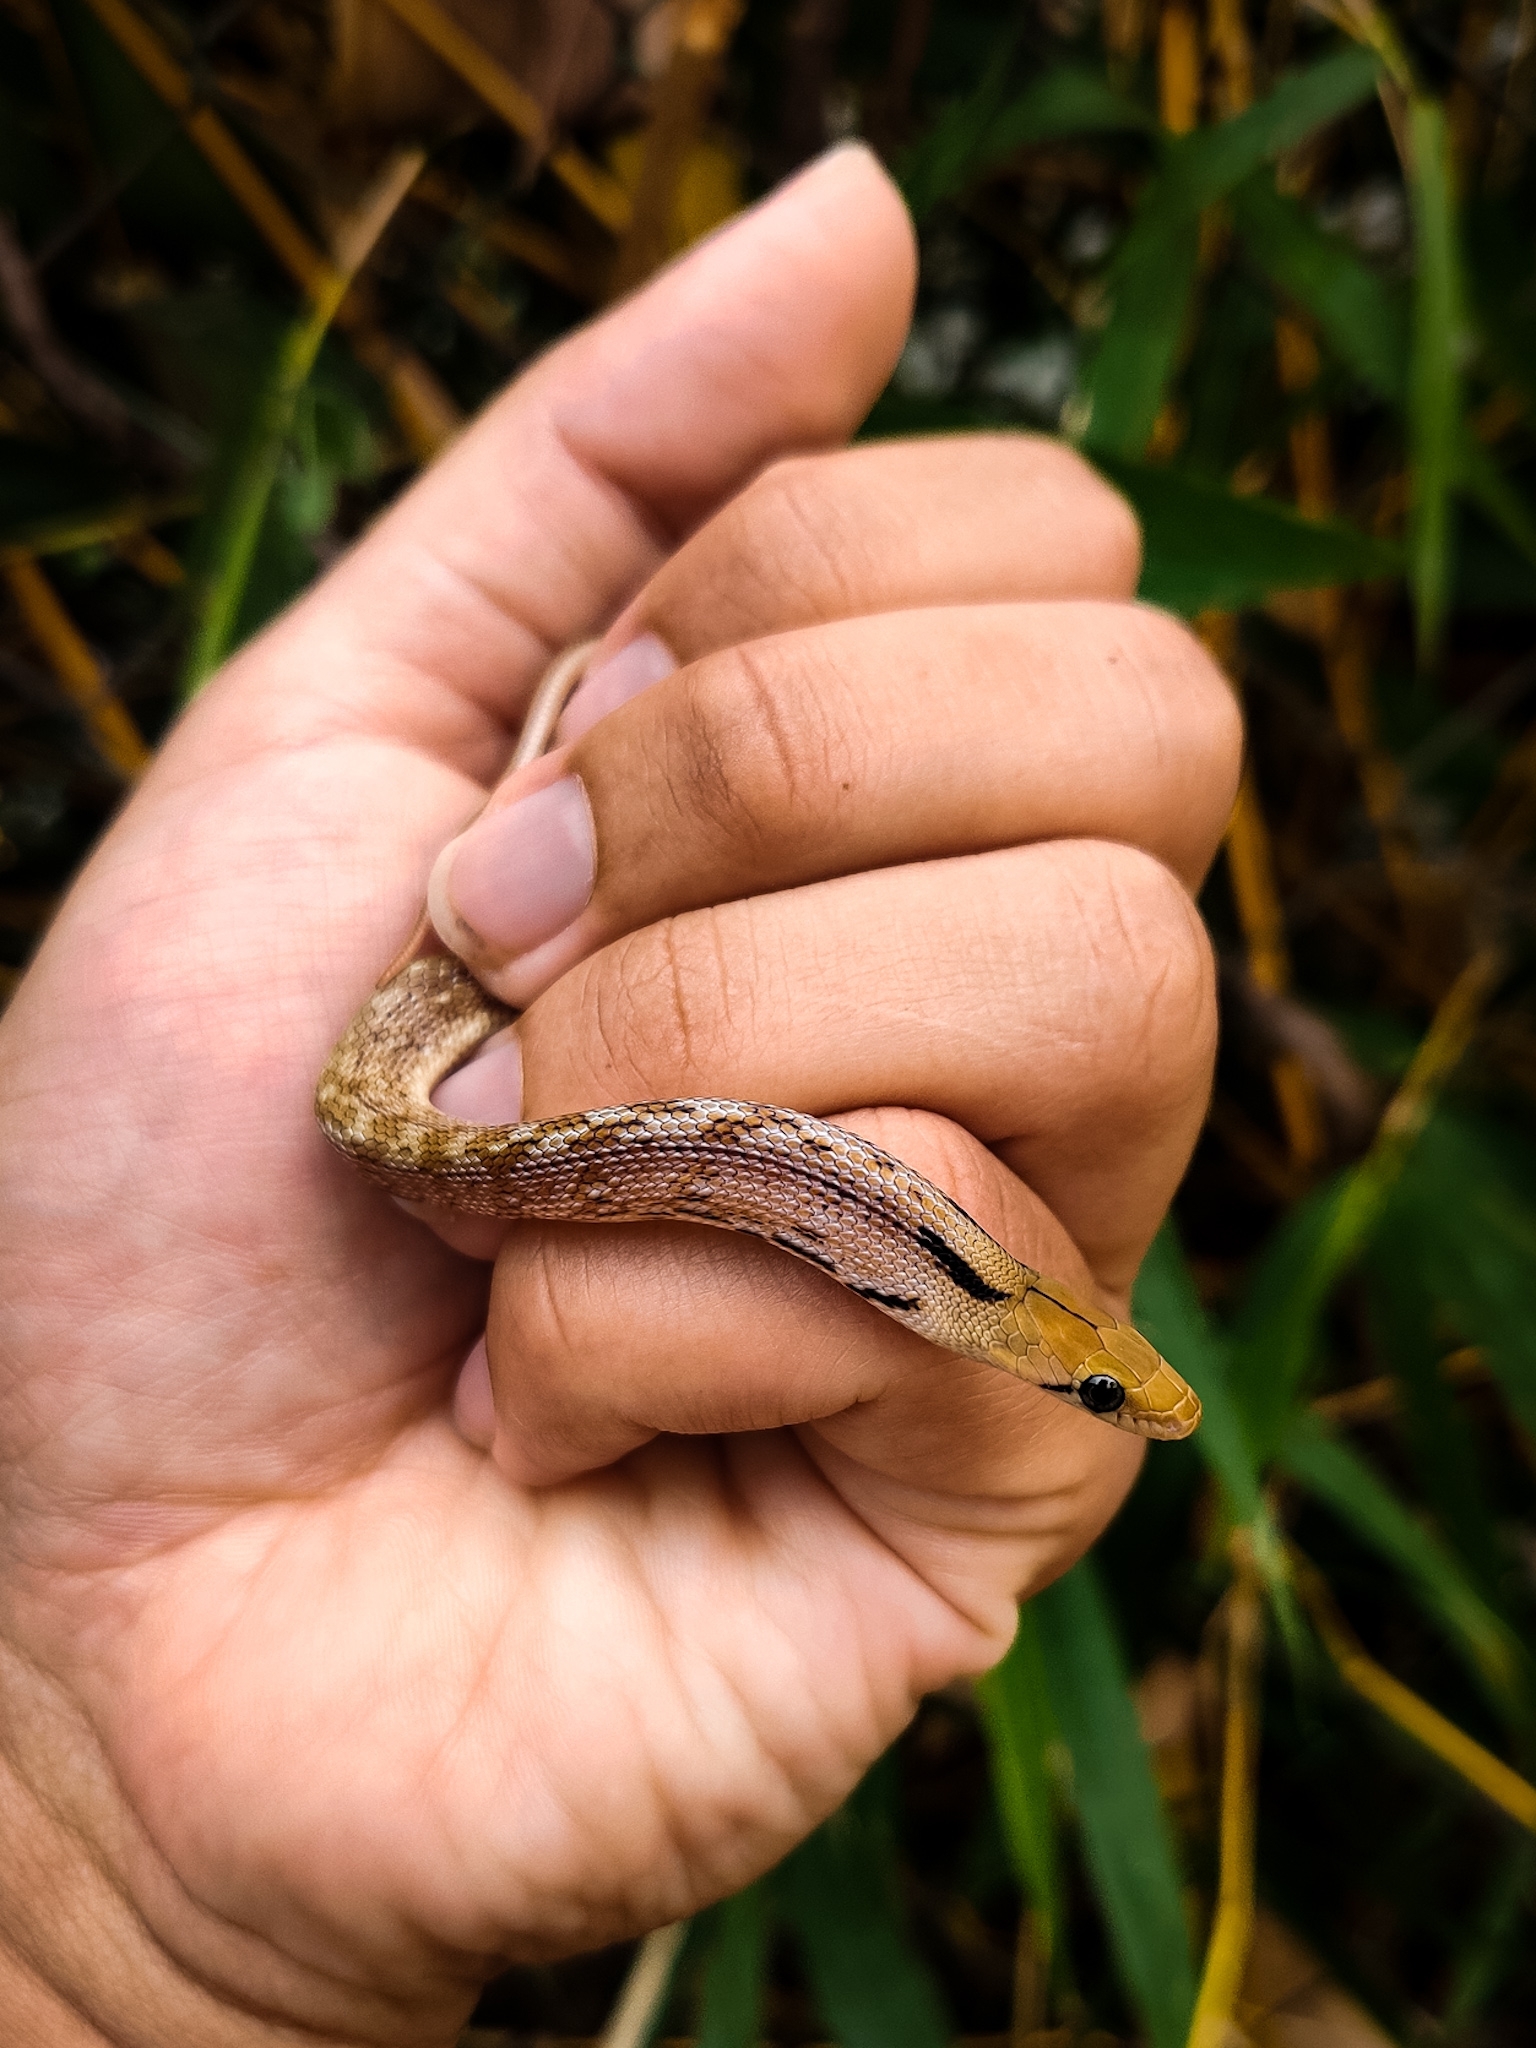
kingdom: Animalia
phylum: Chordata
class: Squamata
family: Colubridae
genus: Coelognathus
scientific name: Coelognathus helena
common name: Trinket snake
